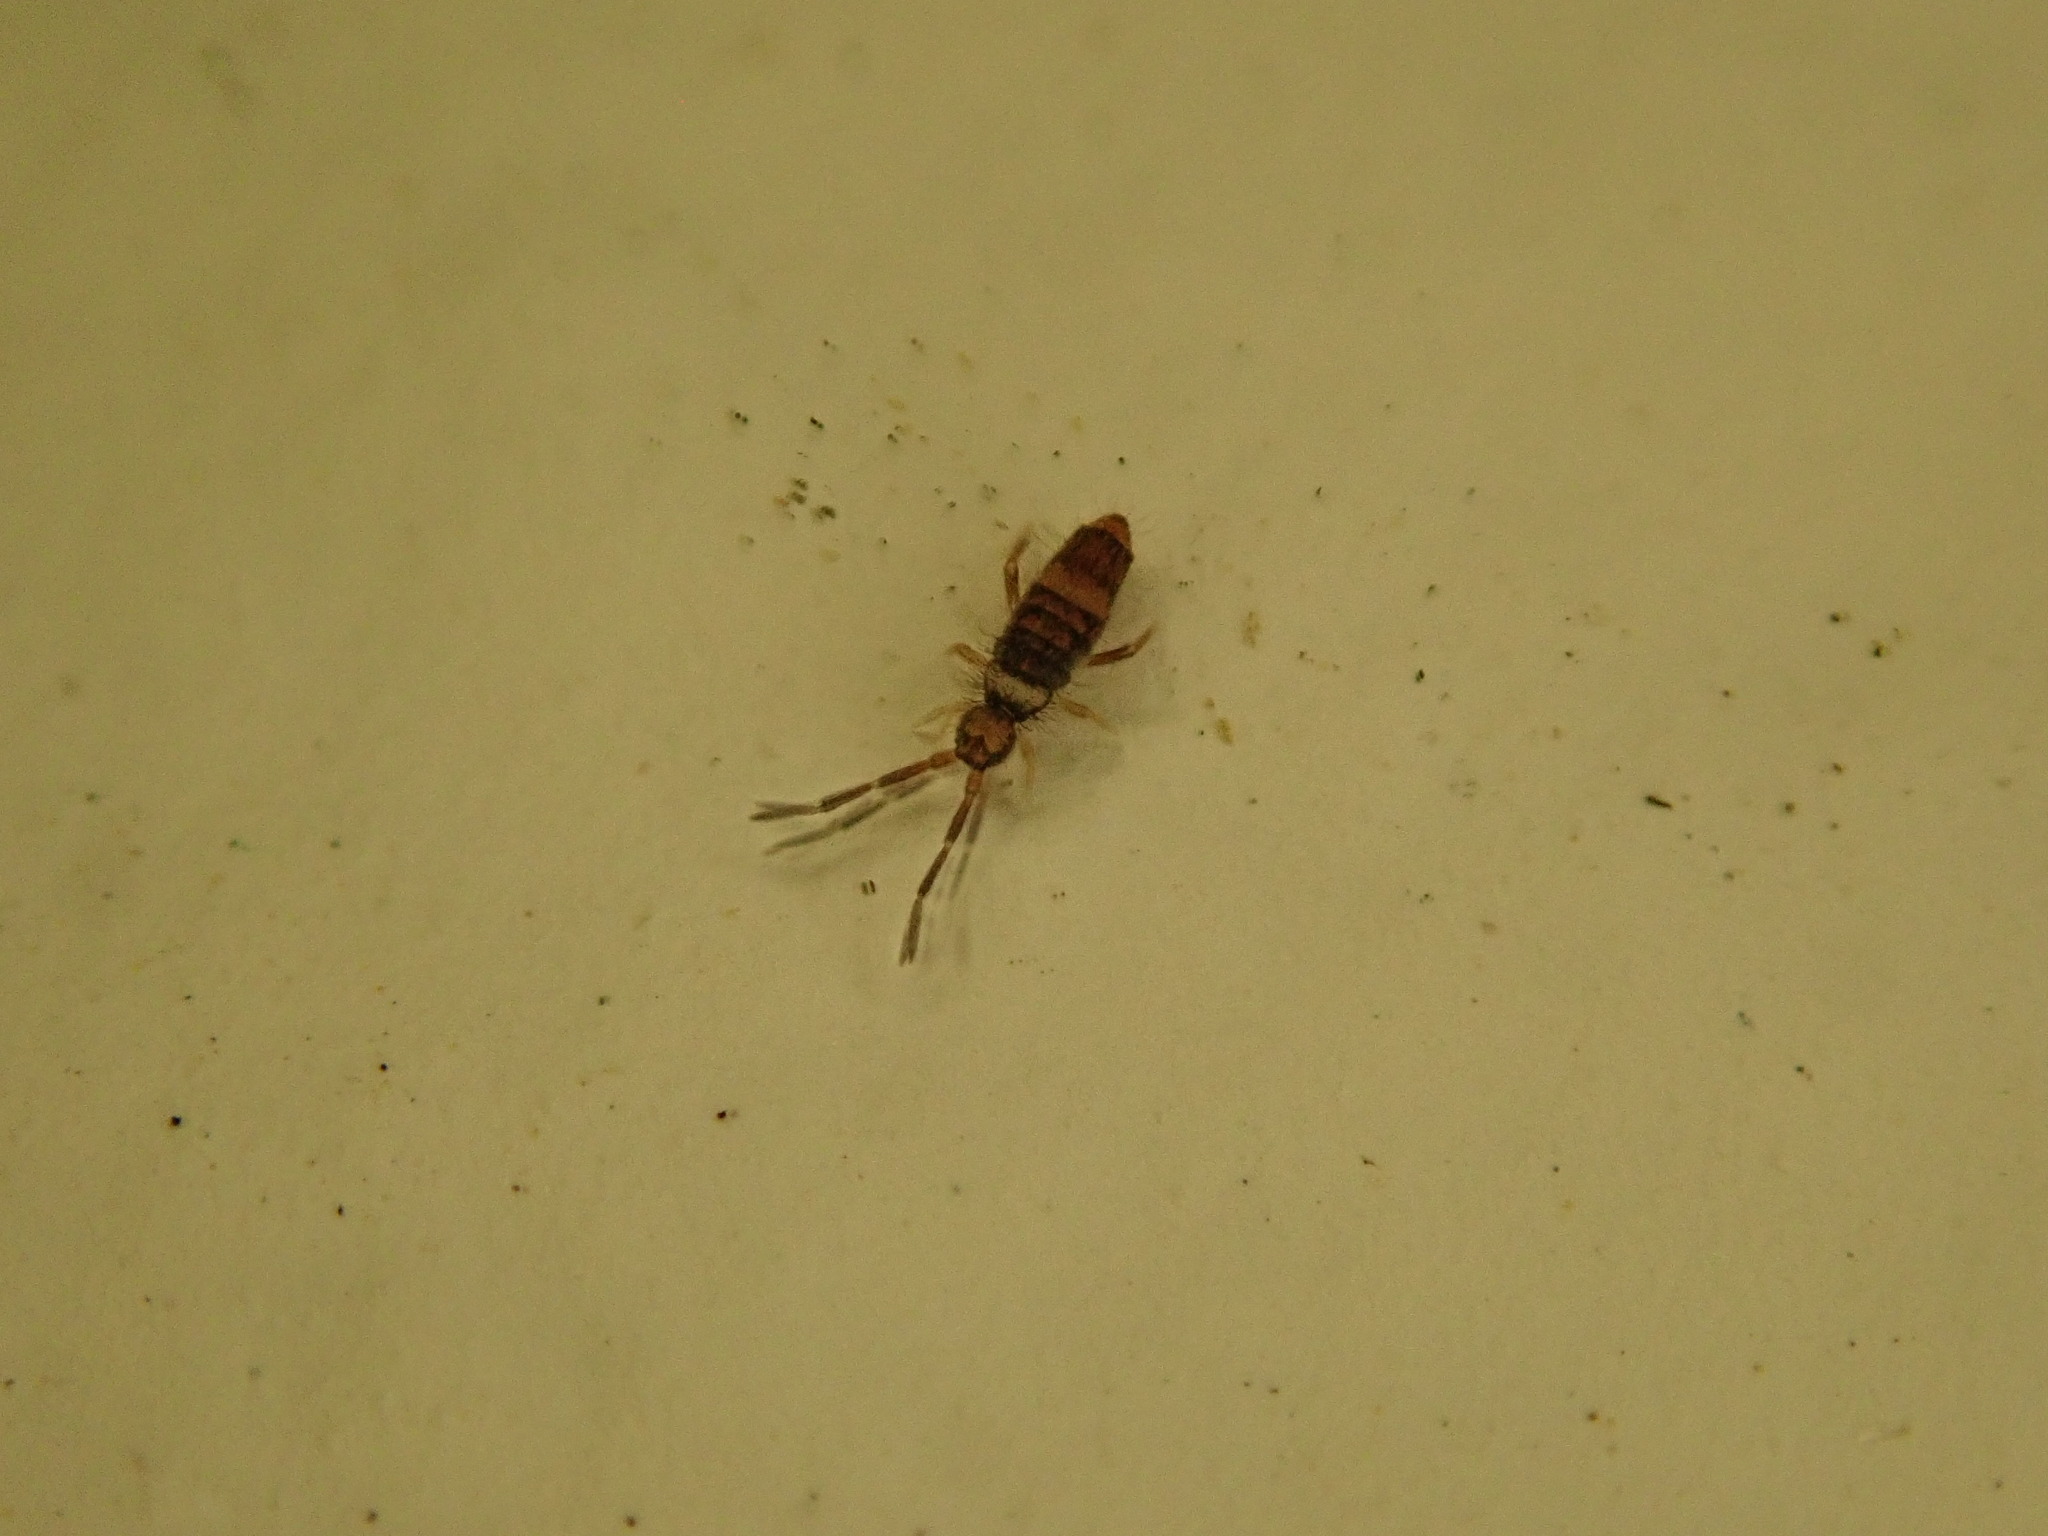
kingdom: Animalia
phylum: Arthropoda
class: Collembola
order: Entomobryomorpha
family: Entomobryidae
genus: Entomobrya
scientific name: Entomobrya albocincta
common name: Springtail
